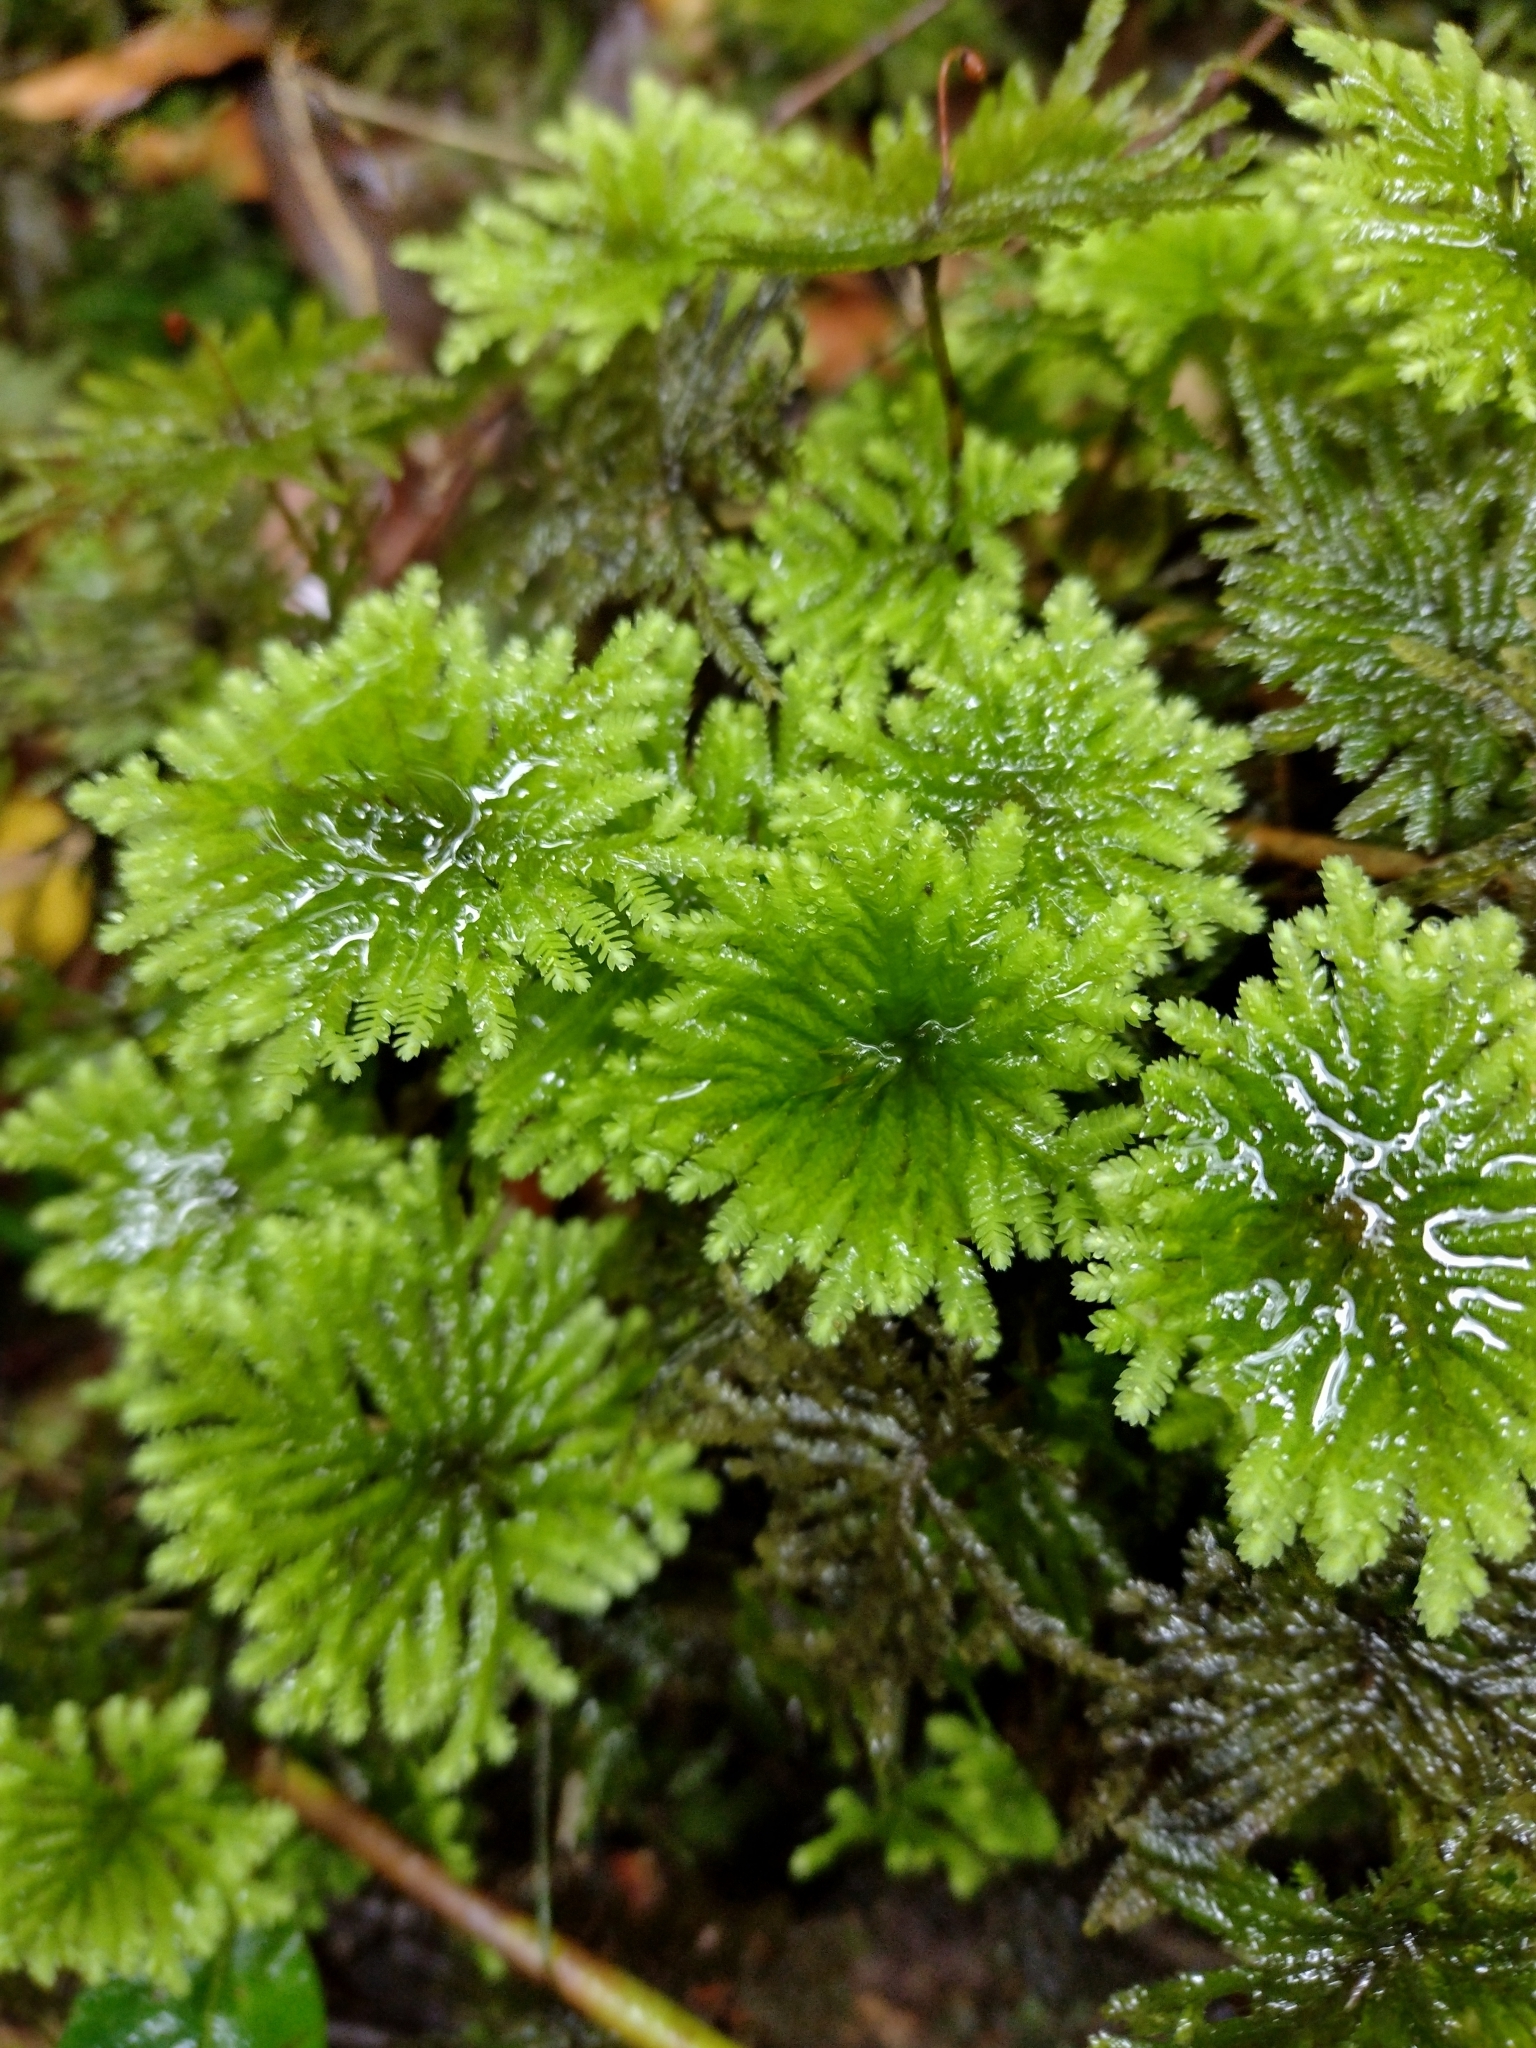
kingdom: Plantae
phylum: Bryophyta
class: Bryopsida
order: Hypopterygiales
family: Hypopterygiaceae
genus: Arbusculohypopterygium
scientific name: Arbusculohypopterygium arbuscula
